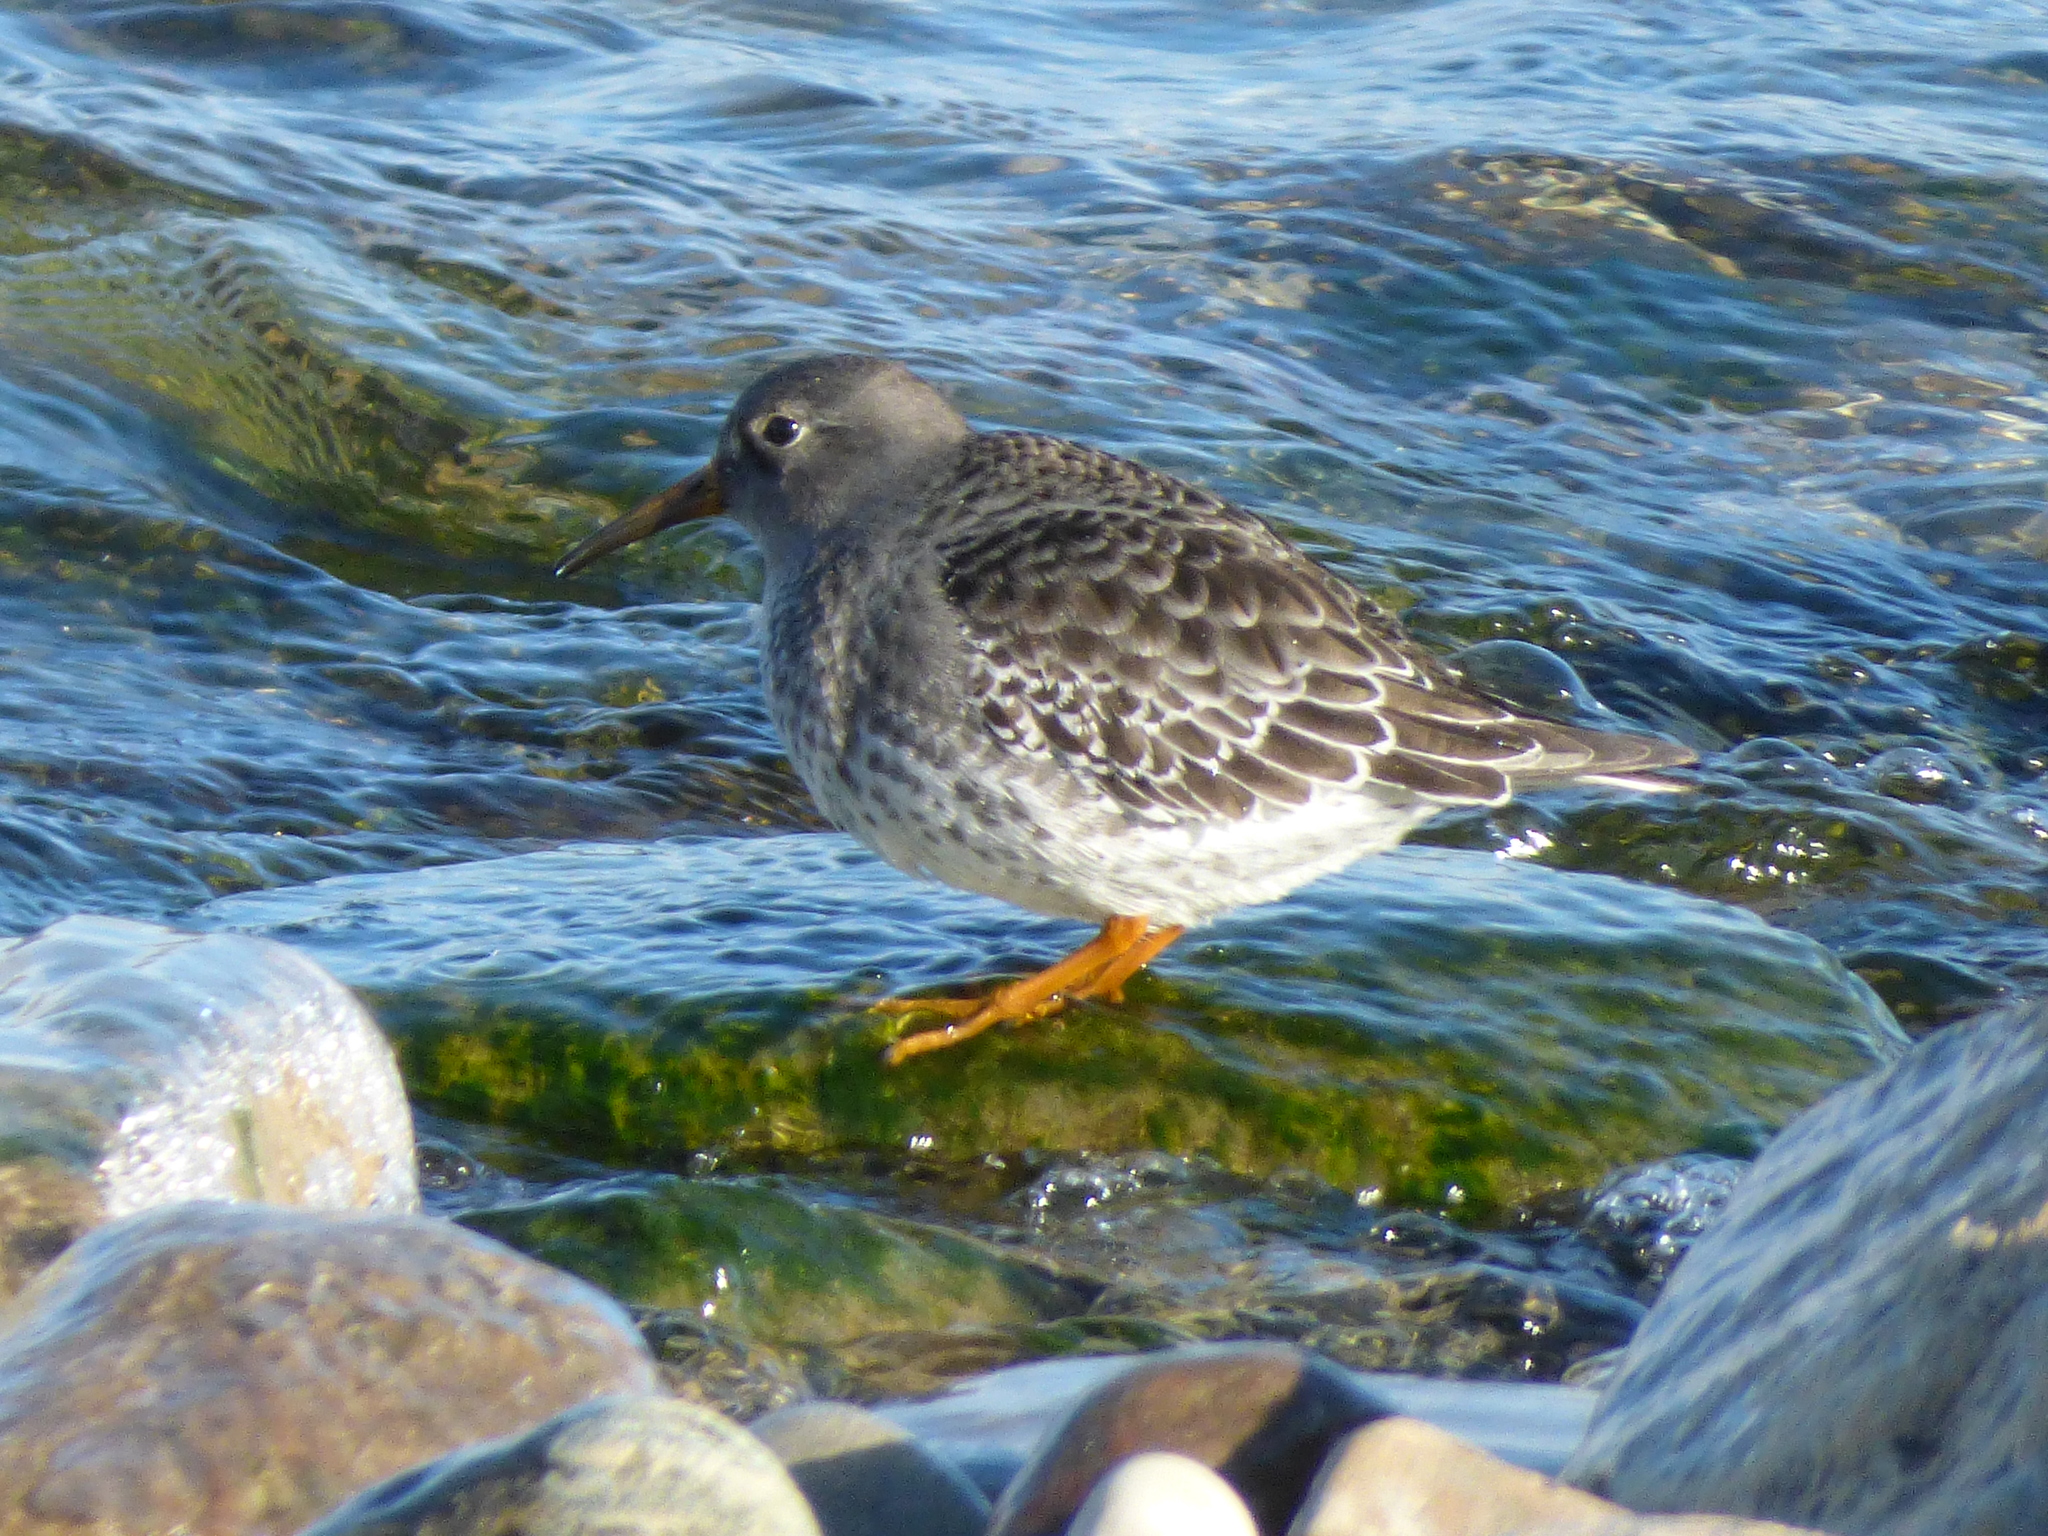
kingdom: Animalia
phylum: Chordata
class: Aves
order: Charadriiformes
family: Scolopacidae
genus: Calidris
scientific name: Calidris maritima
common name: Purple sandpiper
